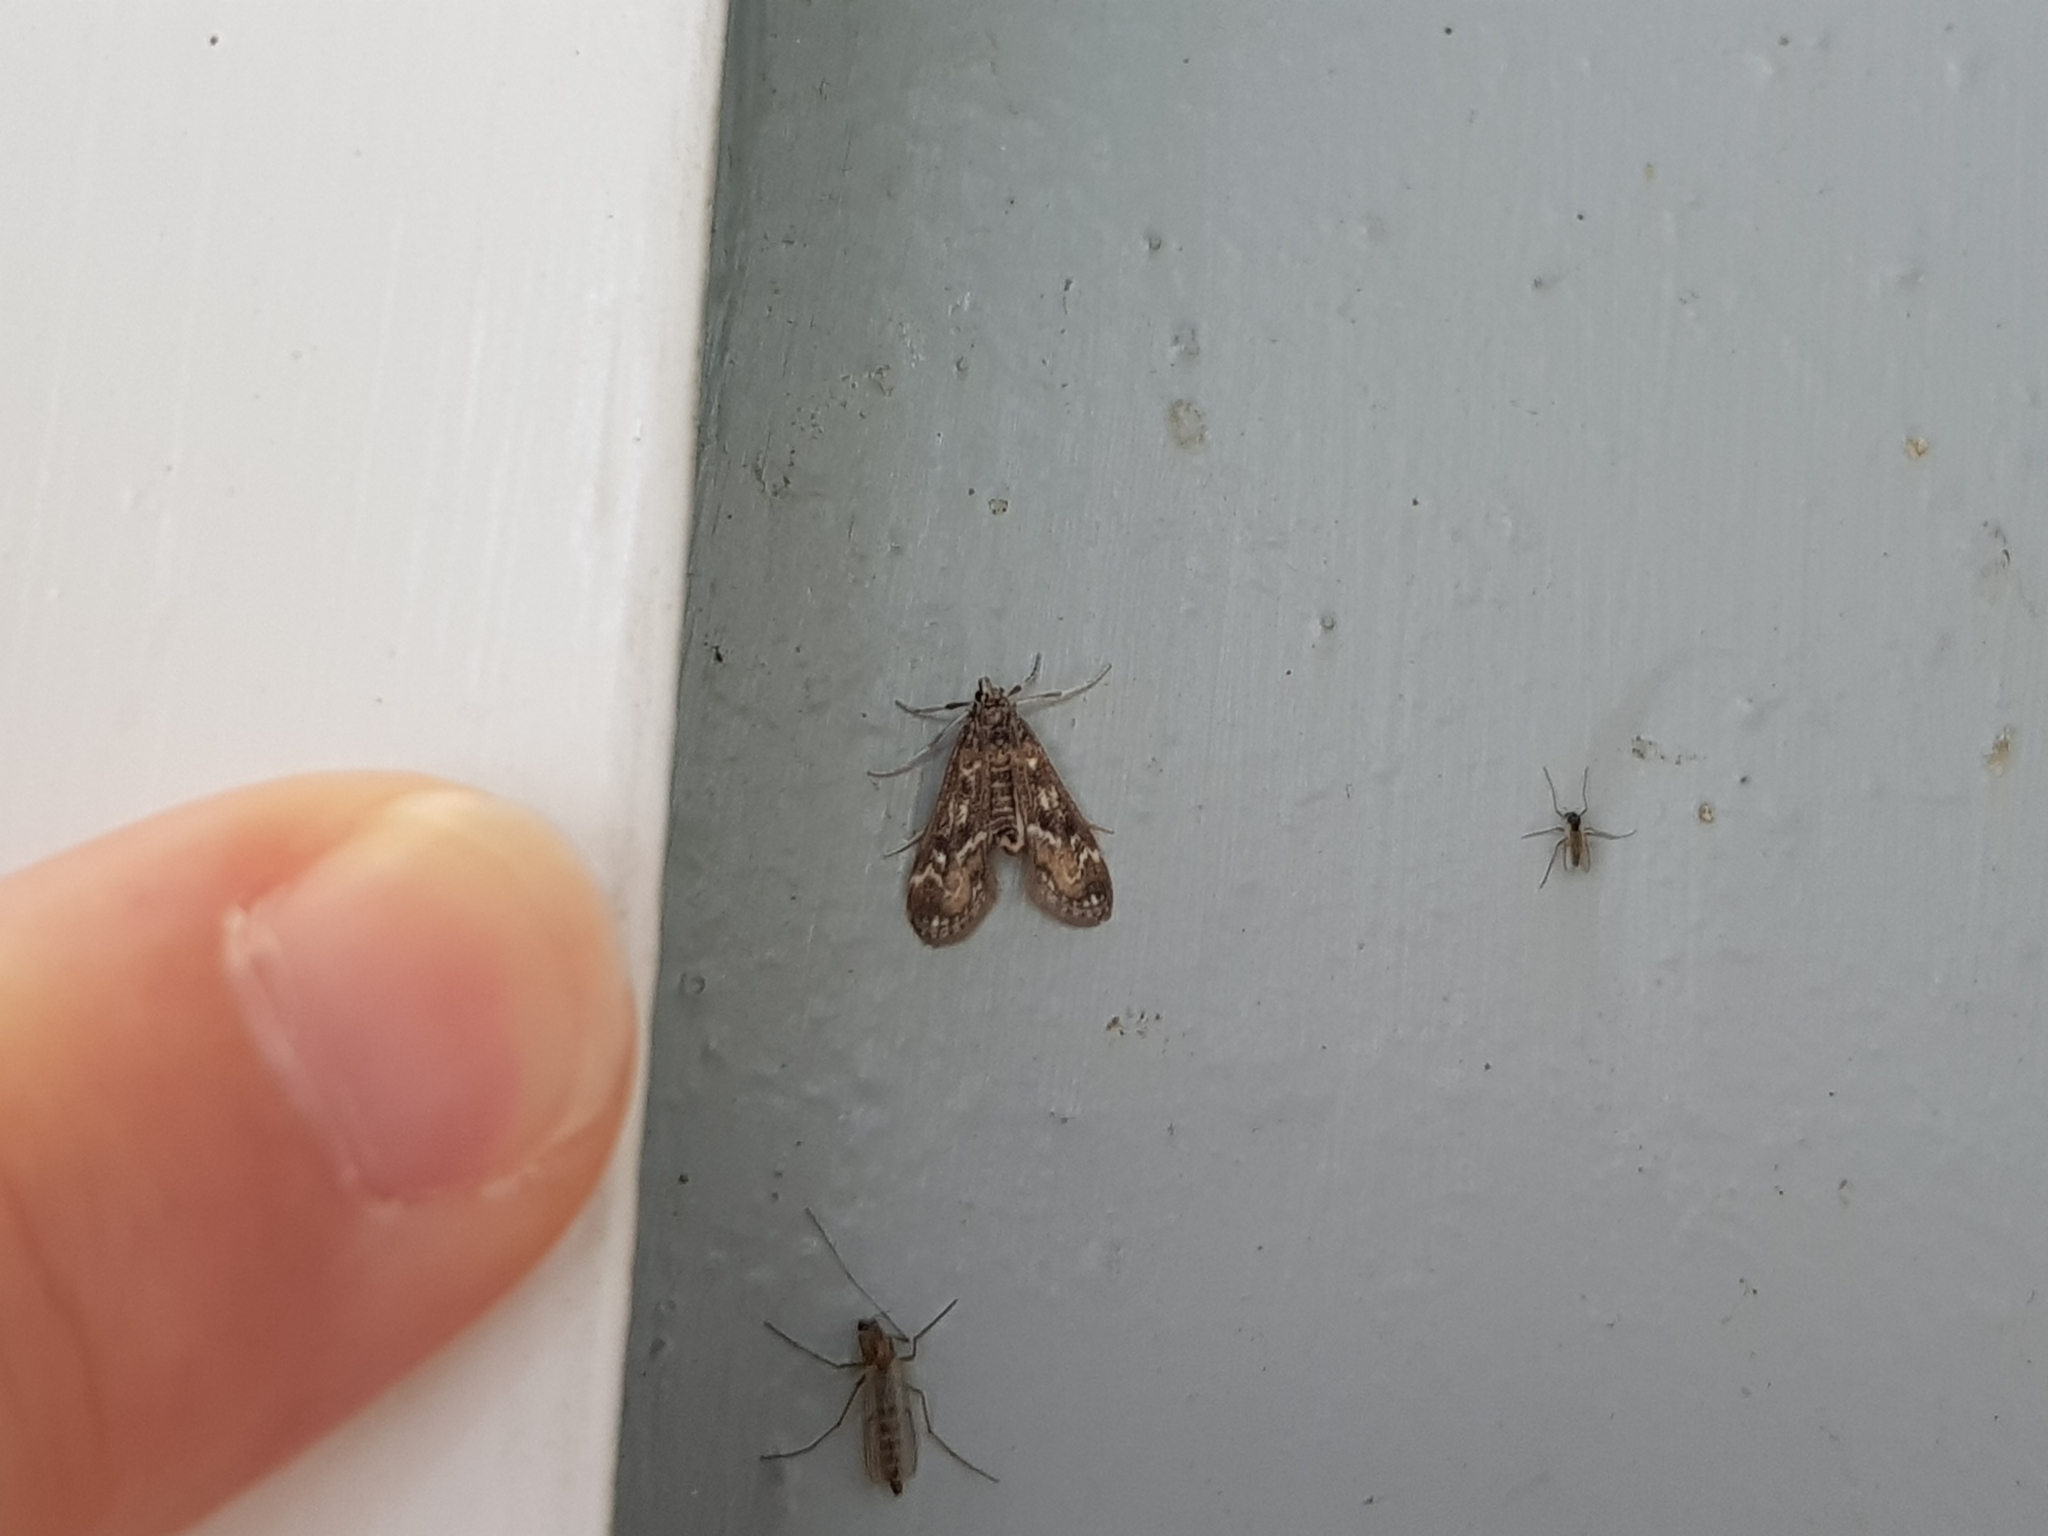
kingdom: Animalia
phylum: Arthropoda
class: Insecta
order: Lepidoptera
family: Crambidae
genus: Hygraula
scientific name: Hygraula nitens
